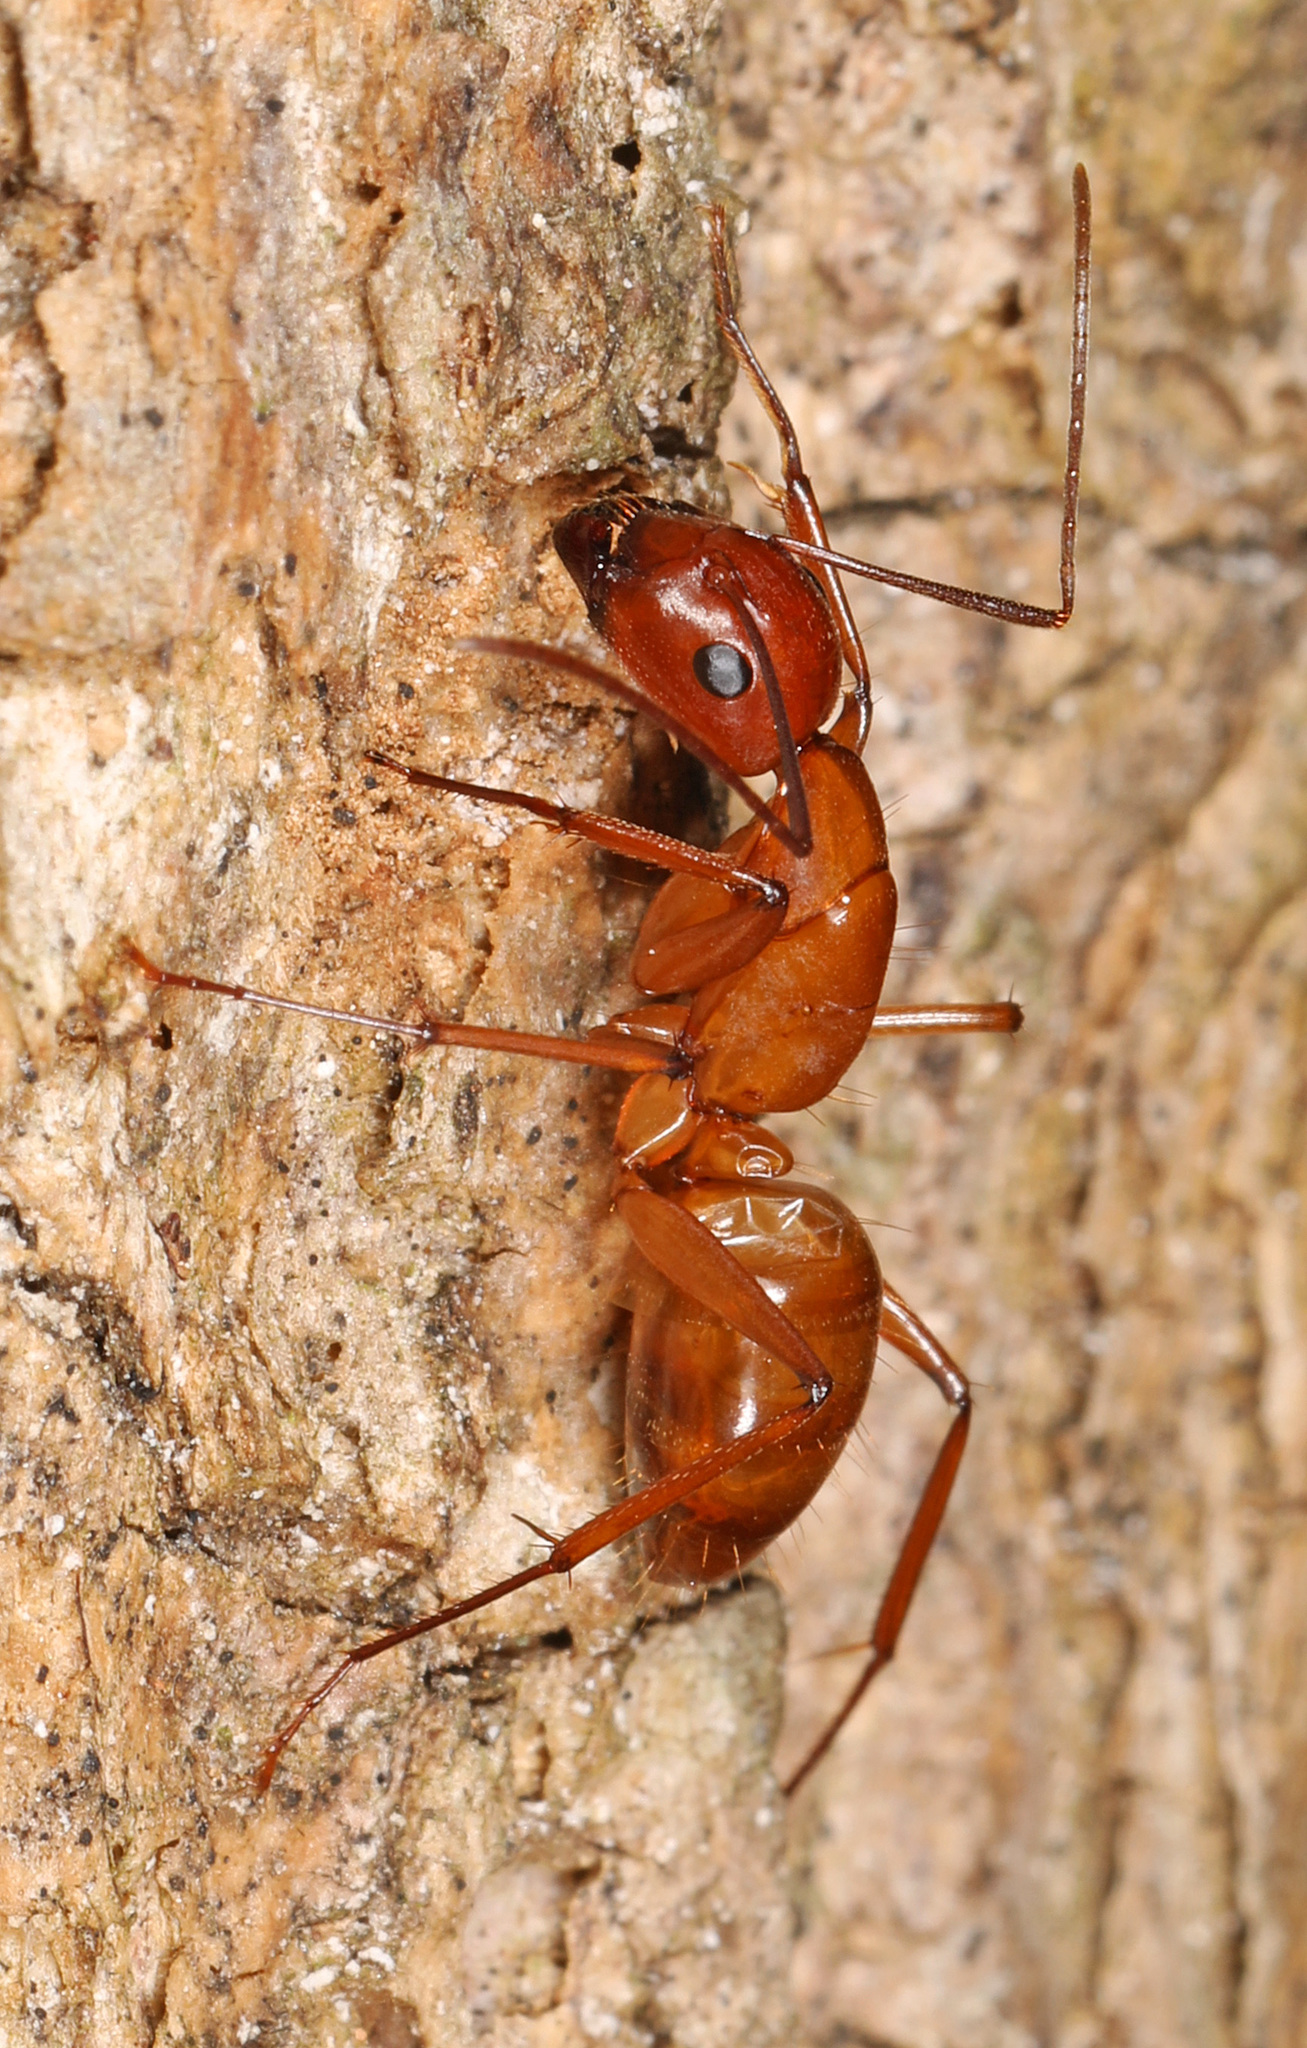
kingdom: Animalia
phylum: Arthropoda
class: Insecta
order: Hymenoptera
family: Formicidae
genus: Camponotus
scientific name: Camponotus castaneus
